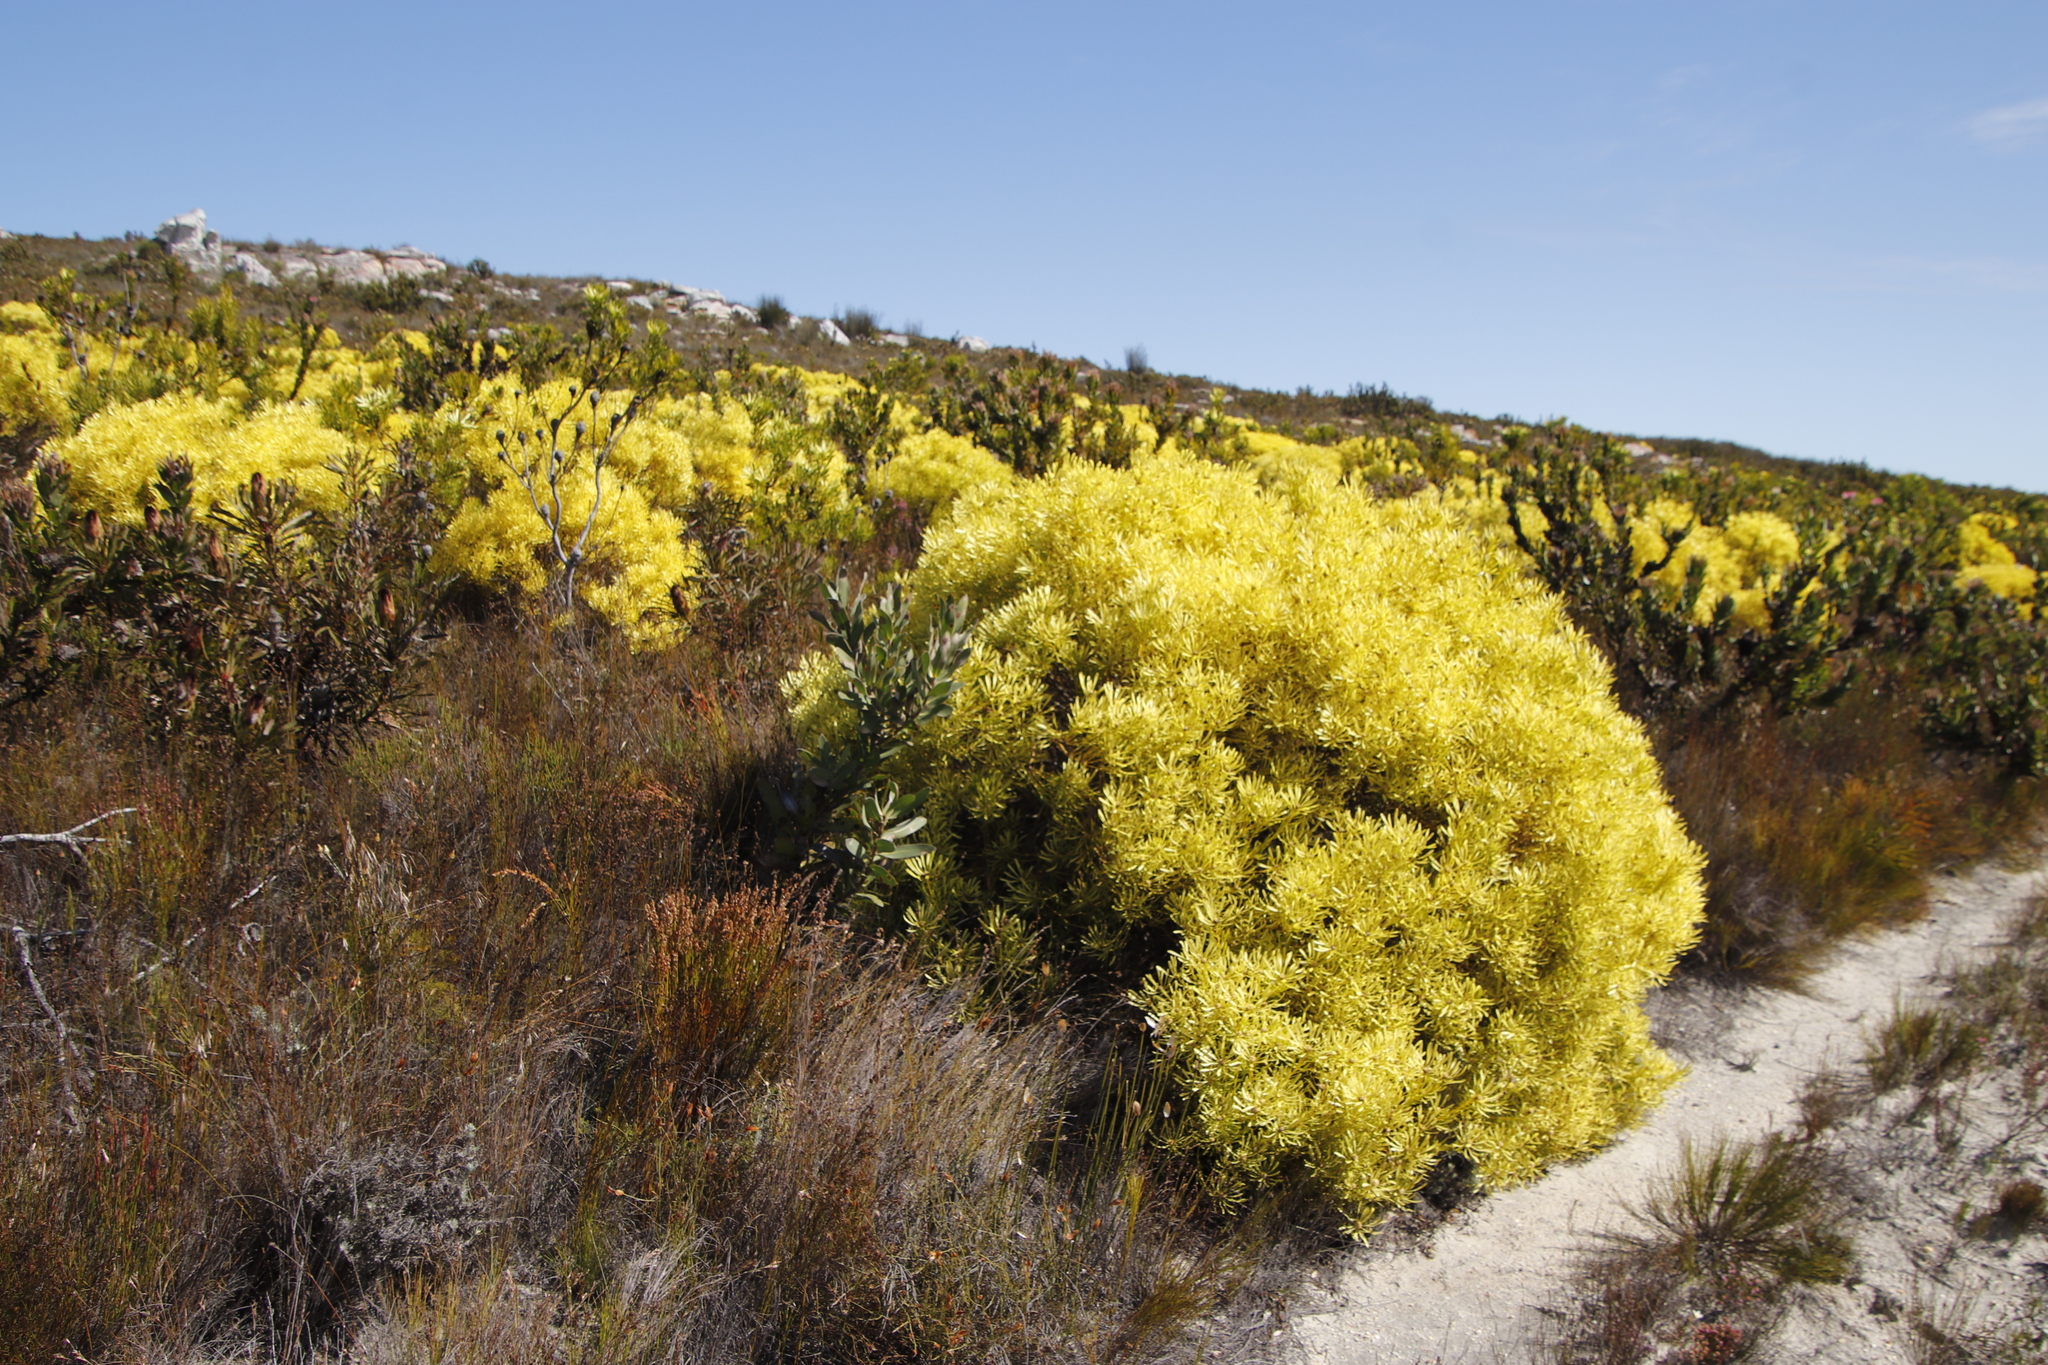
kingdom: Plantae
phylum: Tracheophyta
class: Magnoliopsida
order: Proteales
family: Proteaceae
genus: Leucadendron
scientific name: Leucadendron platyspermum
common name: Plate-seed conebush
